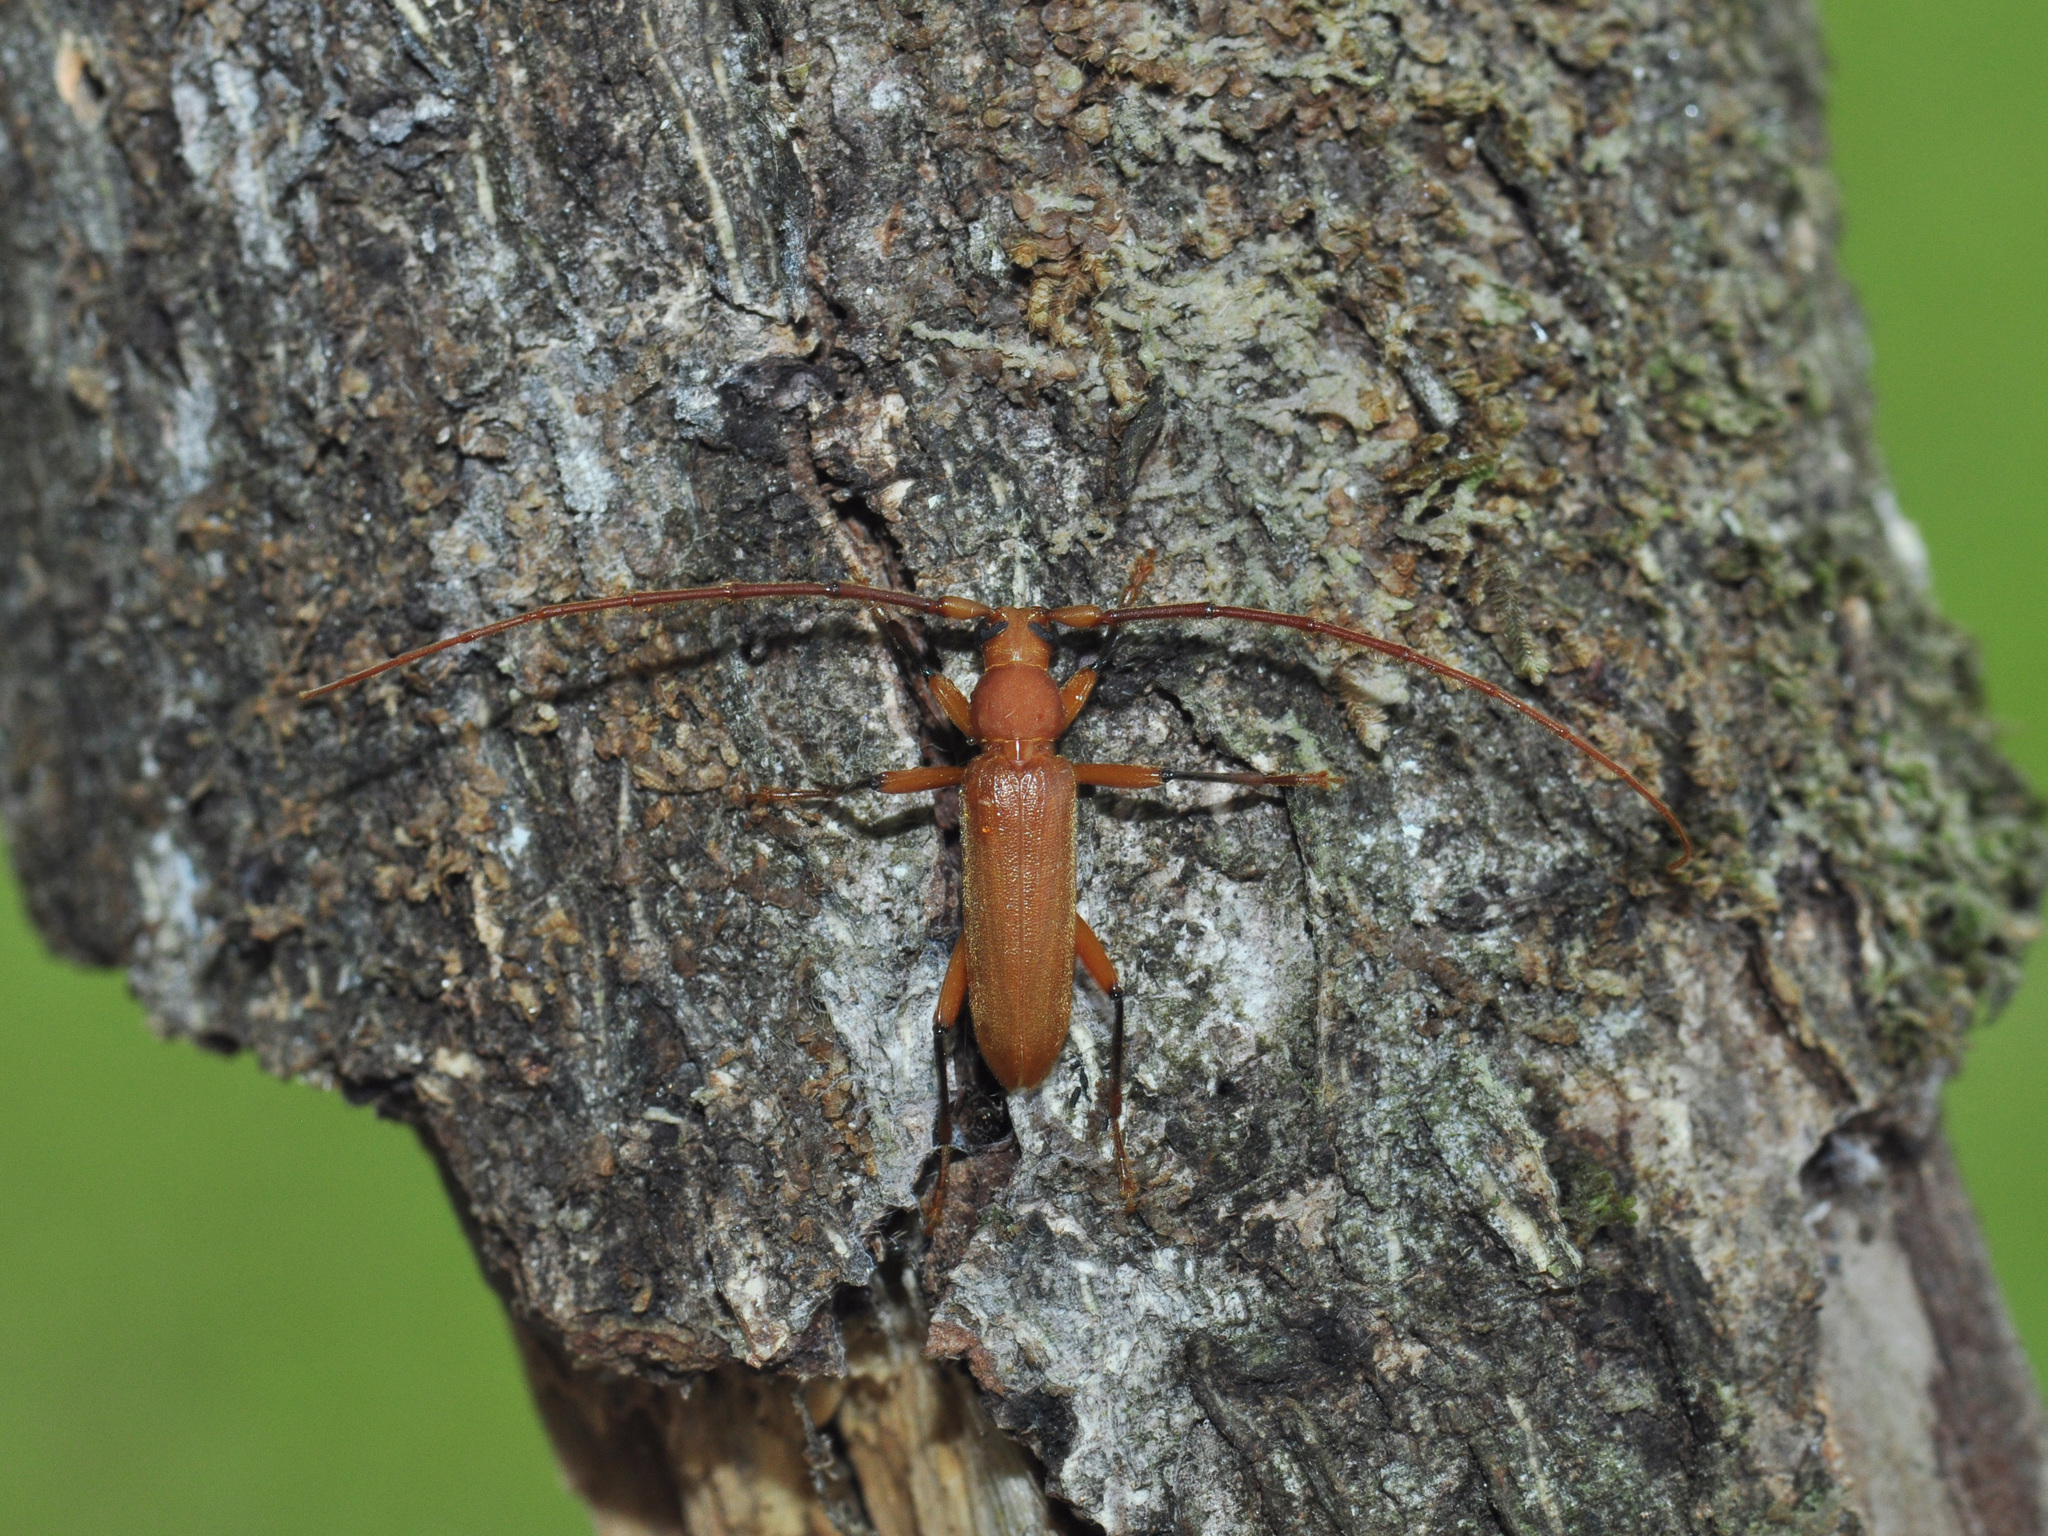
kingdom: Animalia
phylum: Arthropoda
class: Insecta
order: Coleoptera
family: Cerambycidae
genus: Noserius
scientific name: Noserius tibialis
